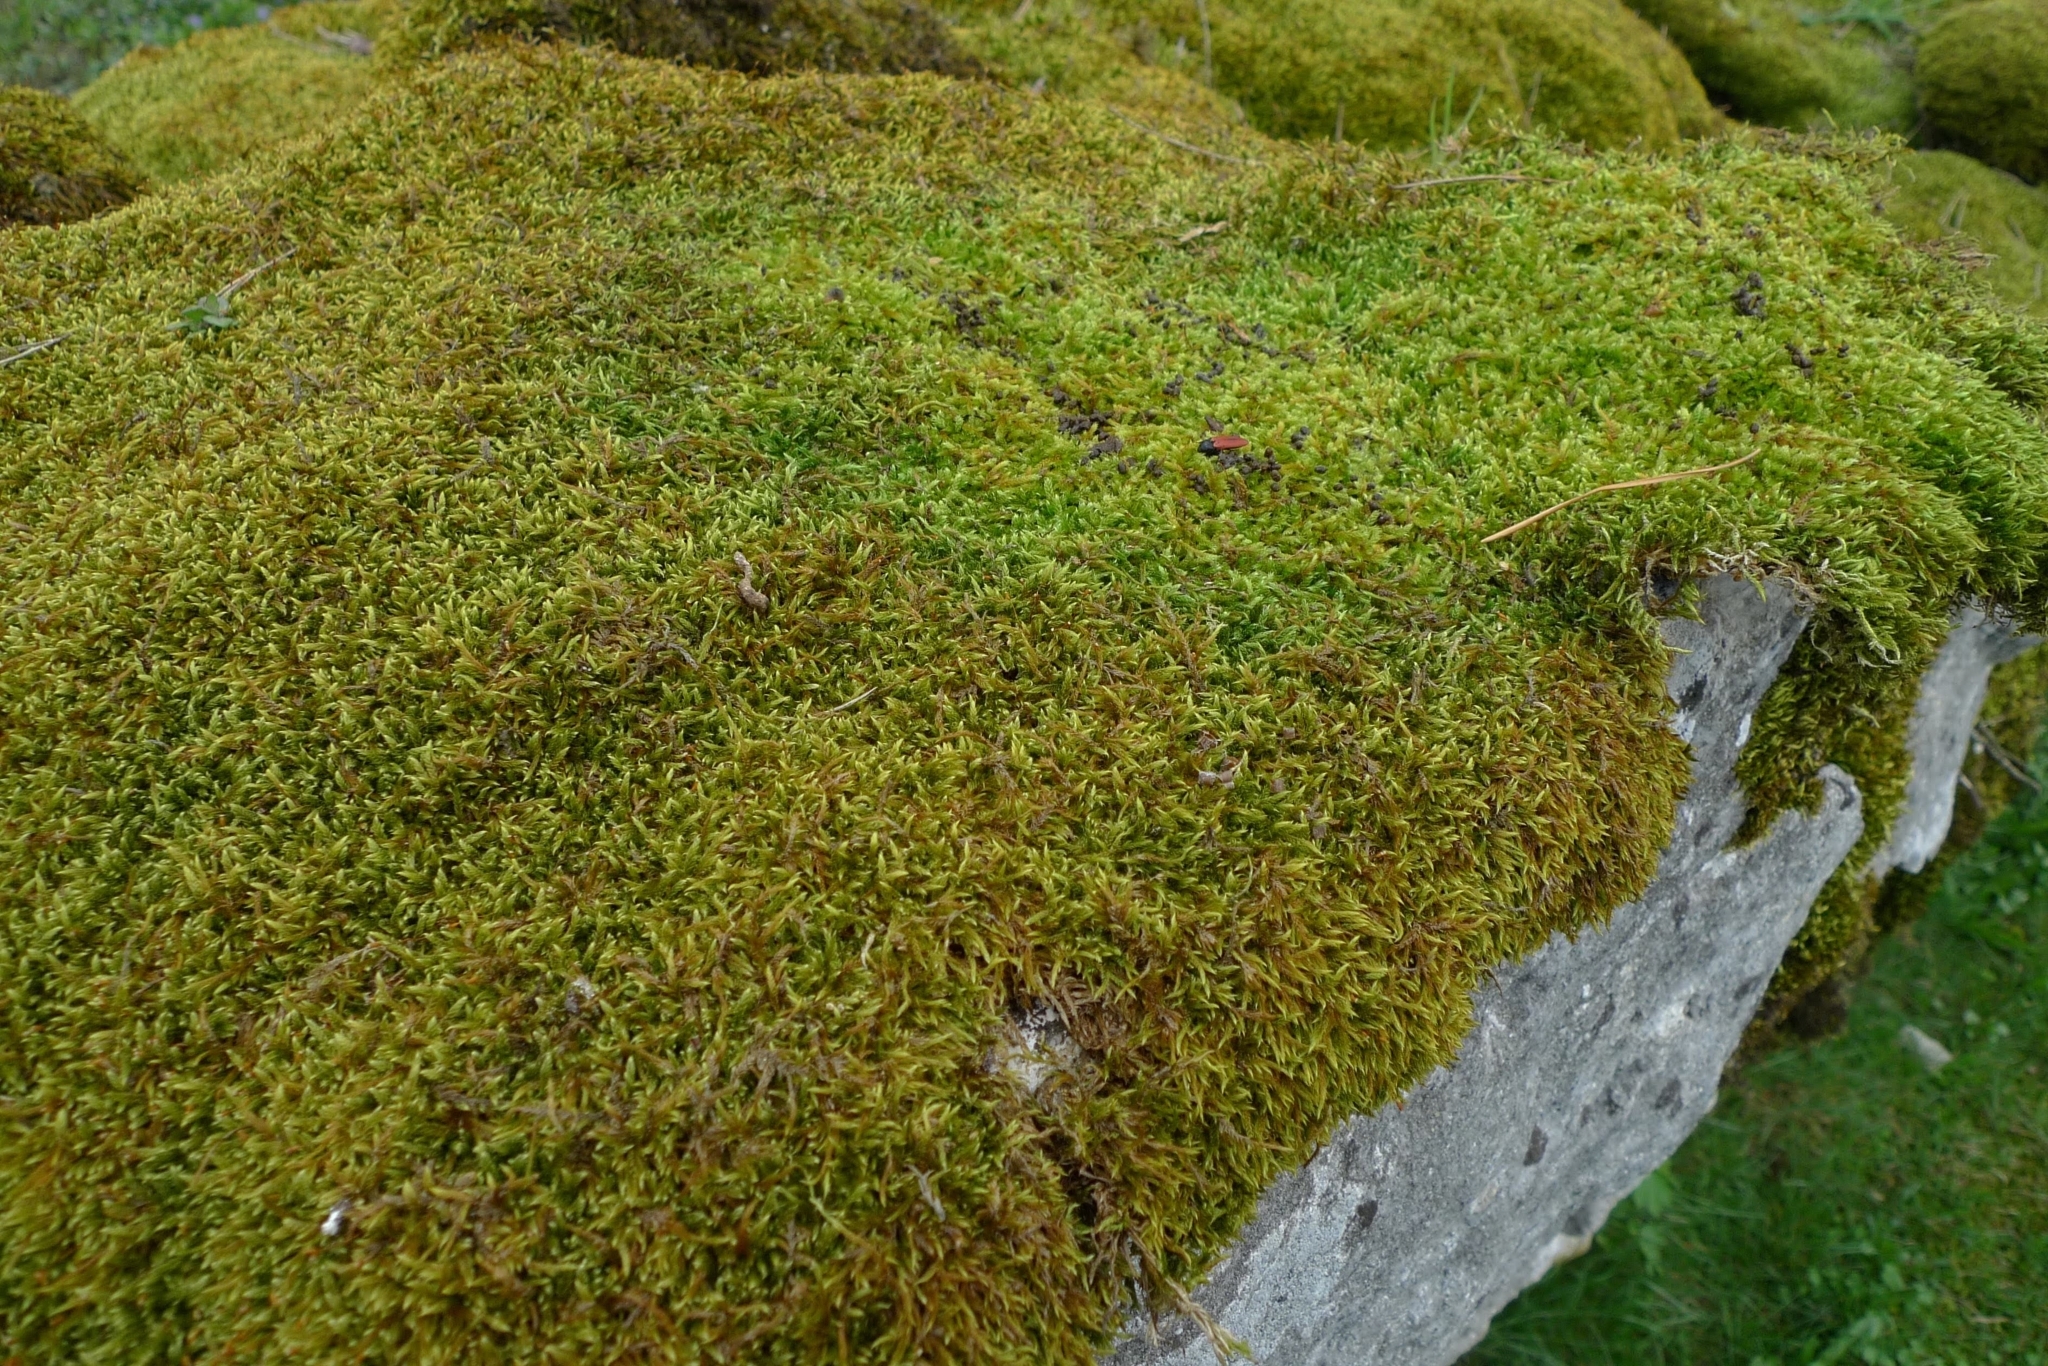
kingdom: Plantae
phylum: Bryophyta
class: Bryopsida
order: Hypnales
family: Hypnaceae
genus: Hypnum
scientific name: Hypnum cupressiforme
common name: Cypress-leaved plait-moss
